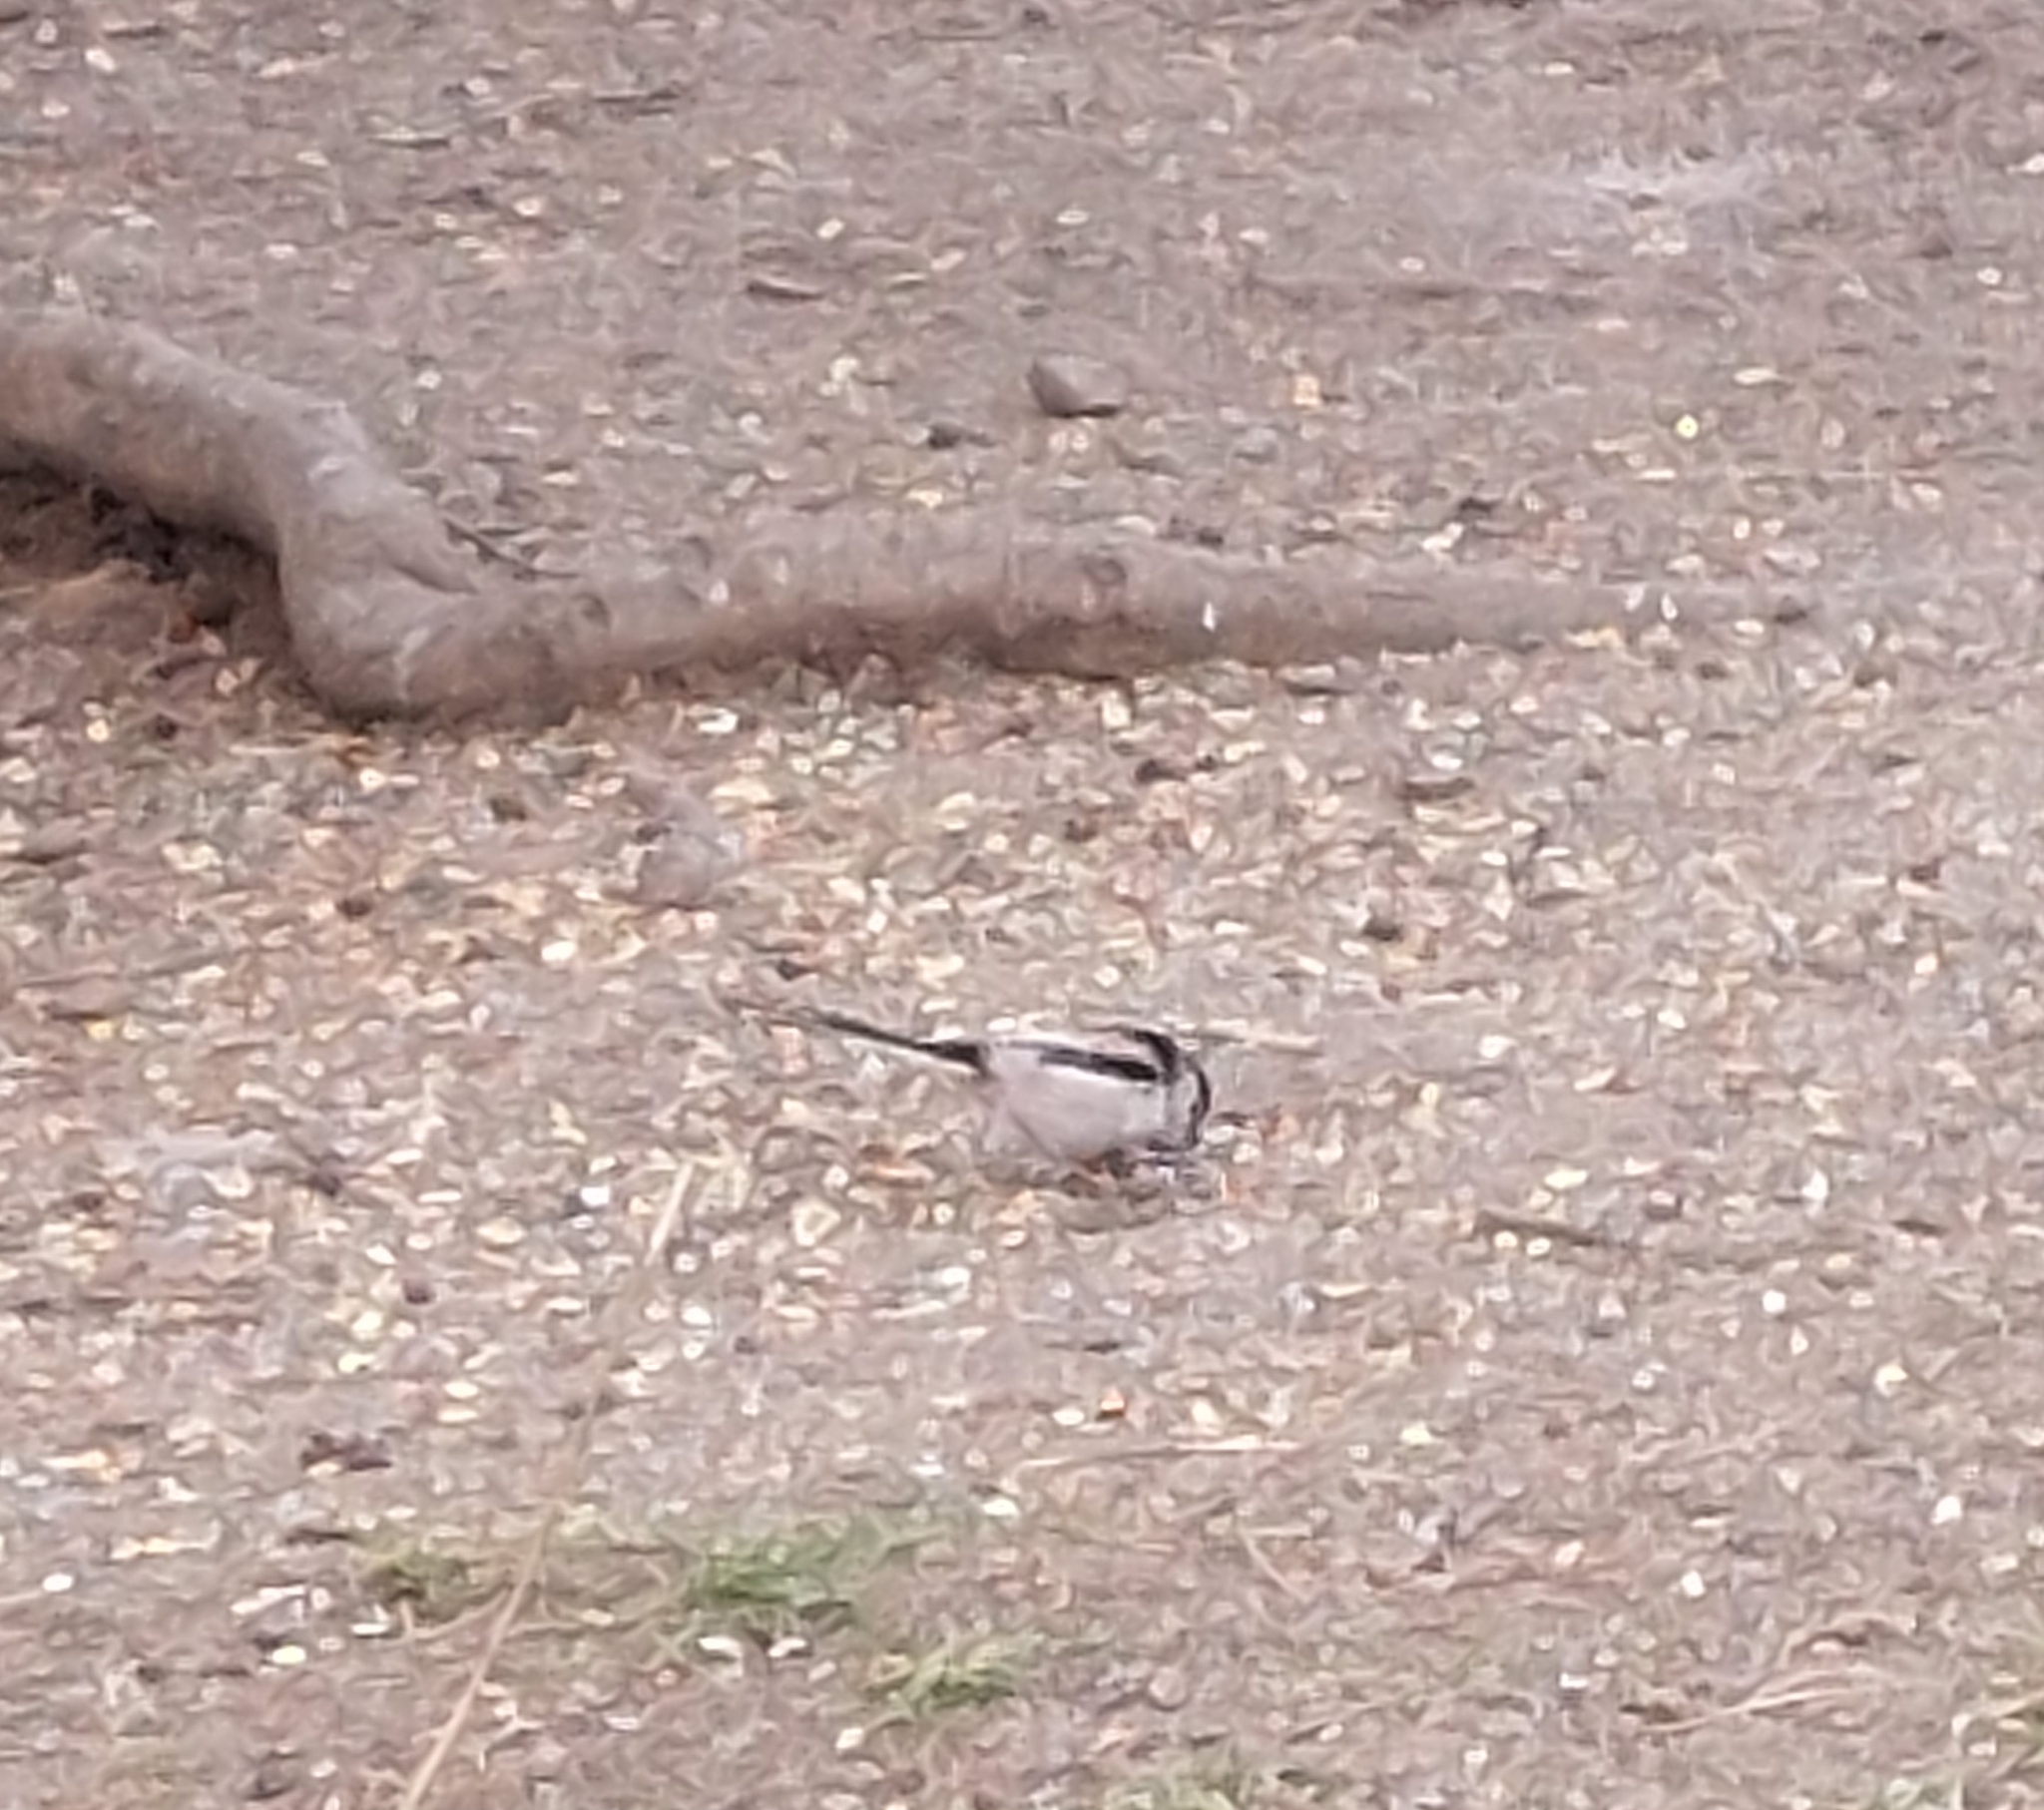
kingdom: Animalia
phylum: Chordata
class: Aves
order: Passeriformes
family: Aegithalidae
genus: Aegithalos
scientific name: Aegithalos caudatus
